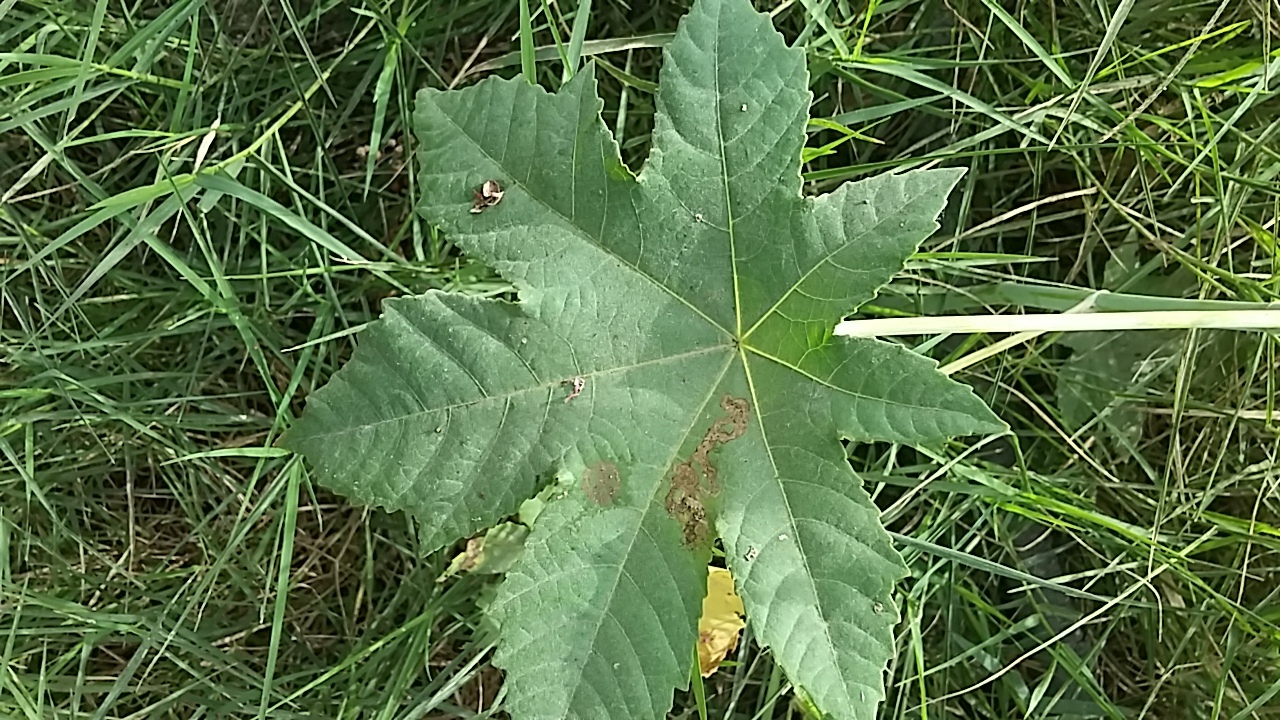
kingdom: Plantae
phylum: Tracheophyta
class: Magnoliopsida
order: Malpighiales
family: Euphorbiaceae
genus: Ricinus
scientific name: Ricinus communis
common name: Castor-oil-plant
